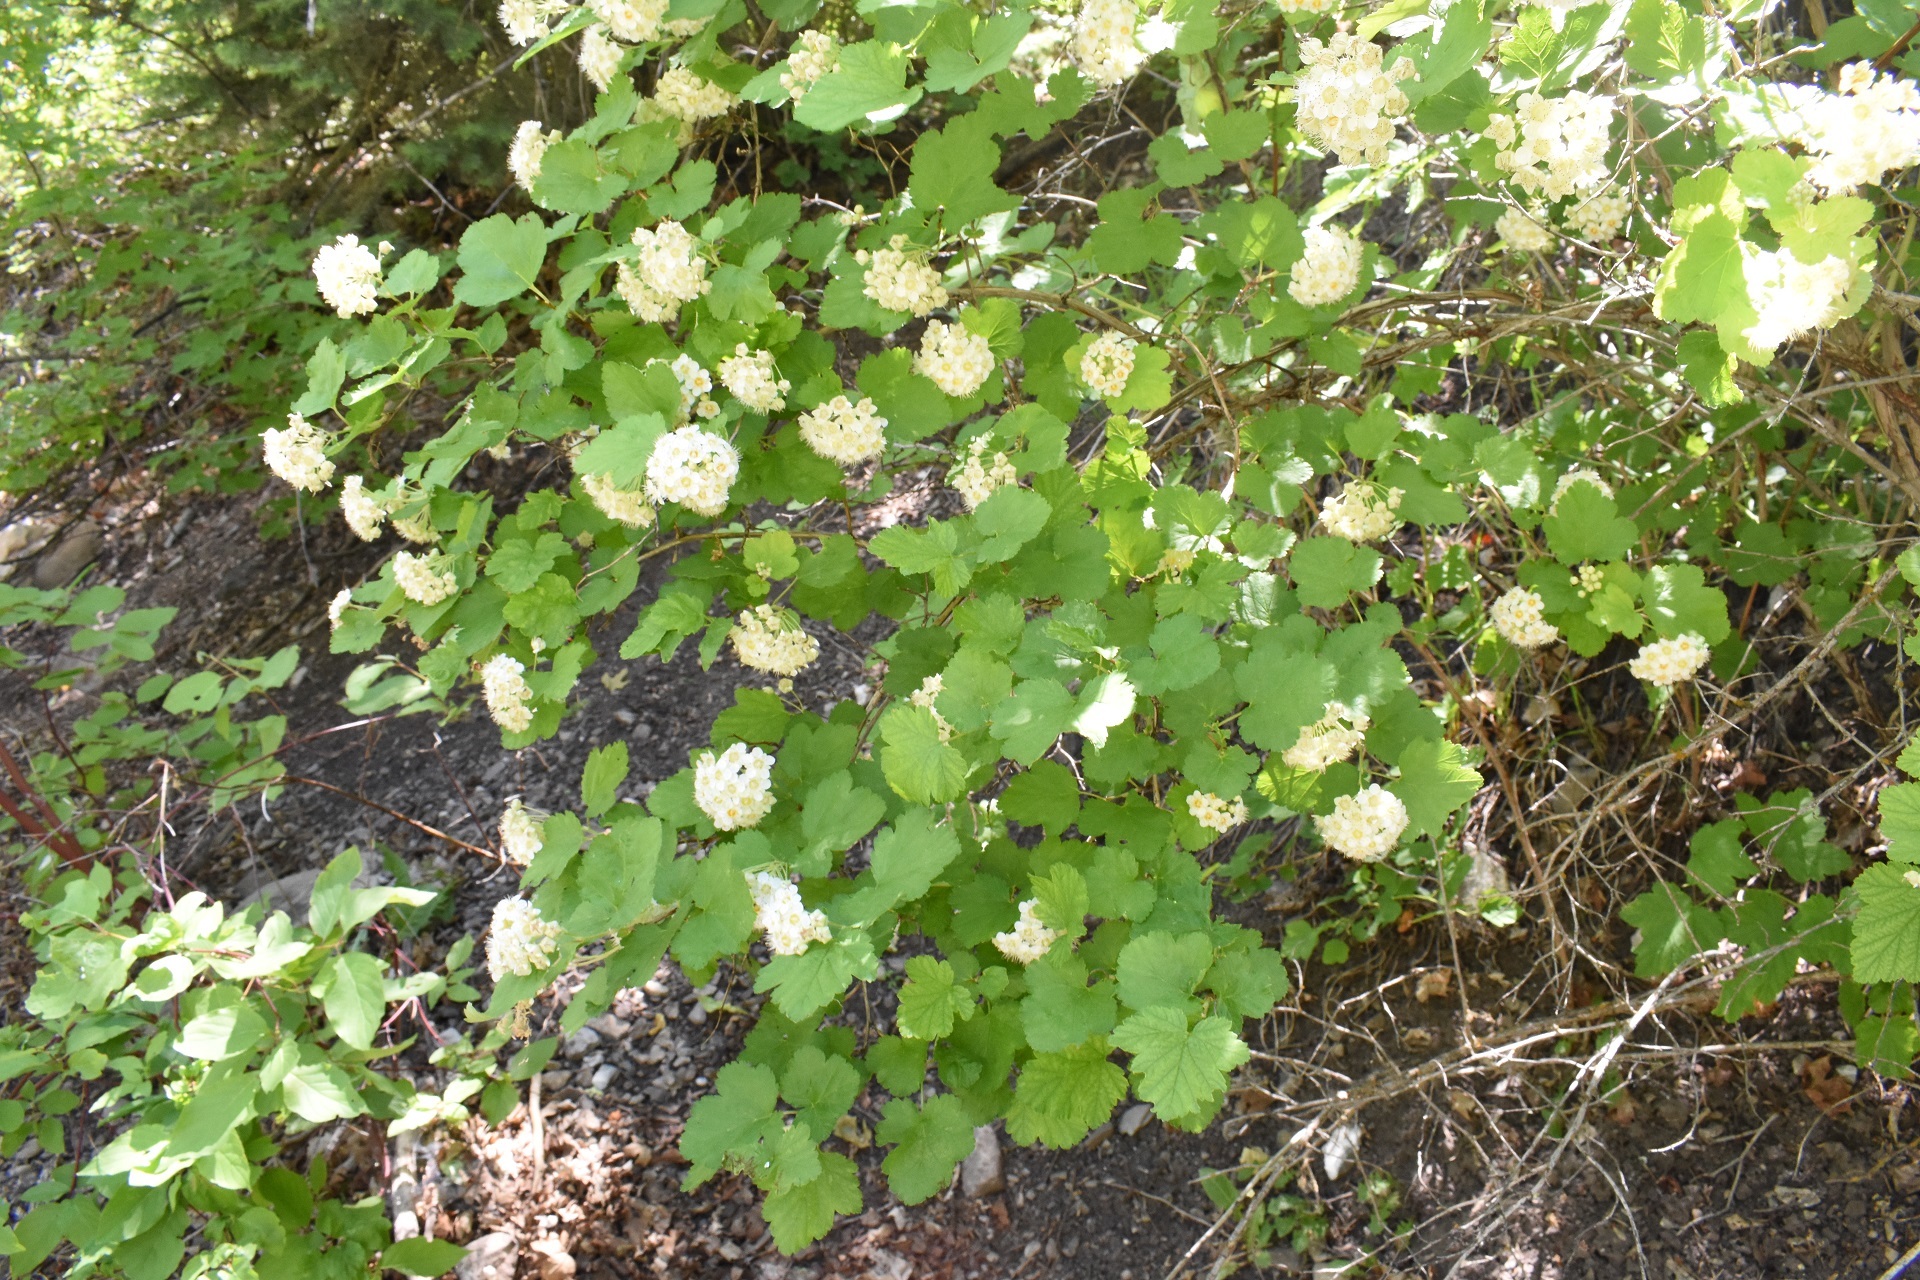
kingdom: Plantae
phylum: Tracheophyta
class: Magnoliopsida
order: Rosales
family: Rosaceae
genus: Physocarpus
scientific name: Physocarpus malvaceus
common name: Mallow ninebark
